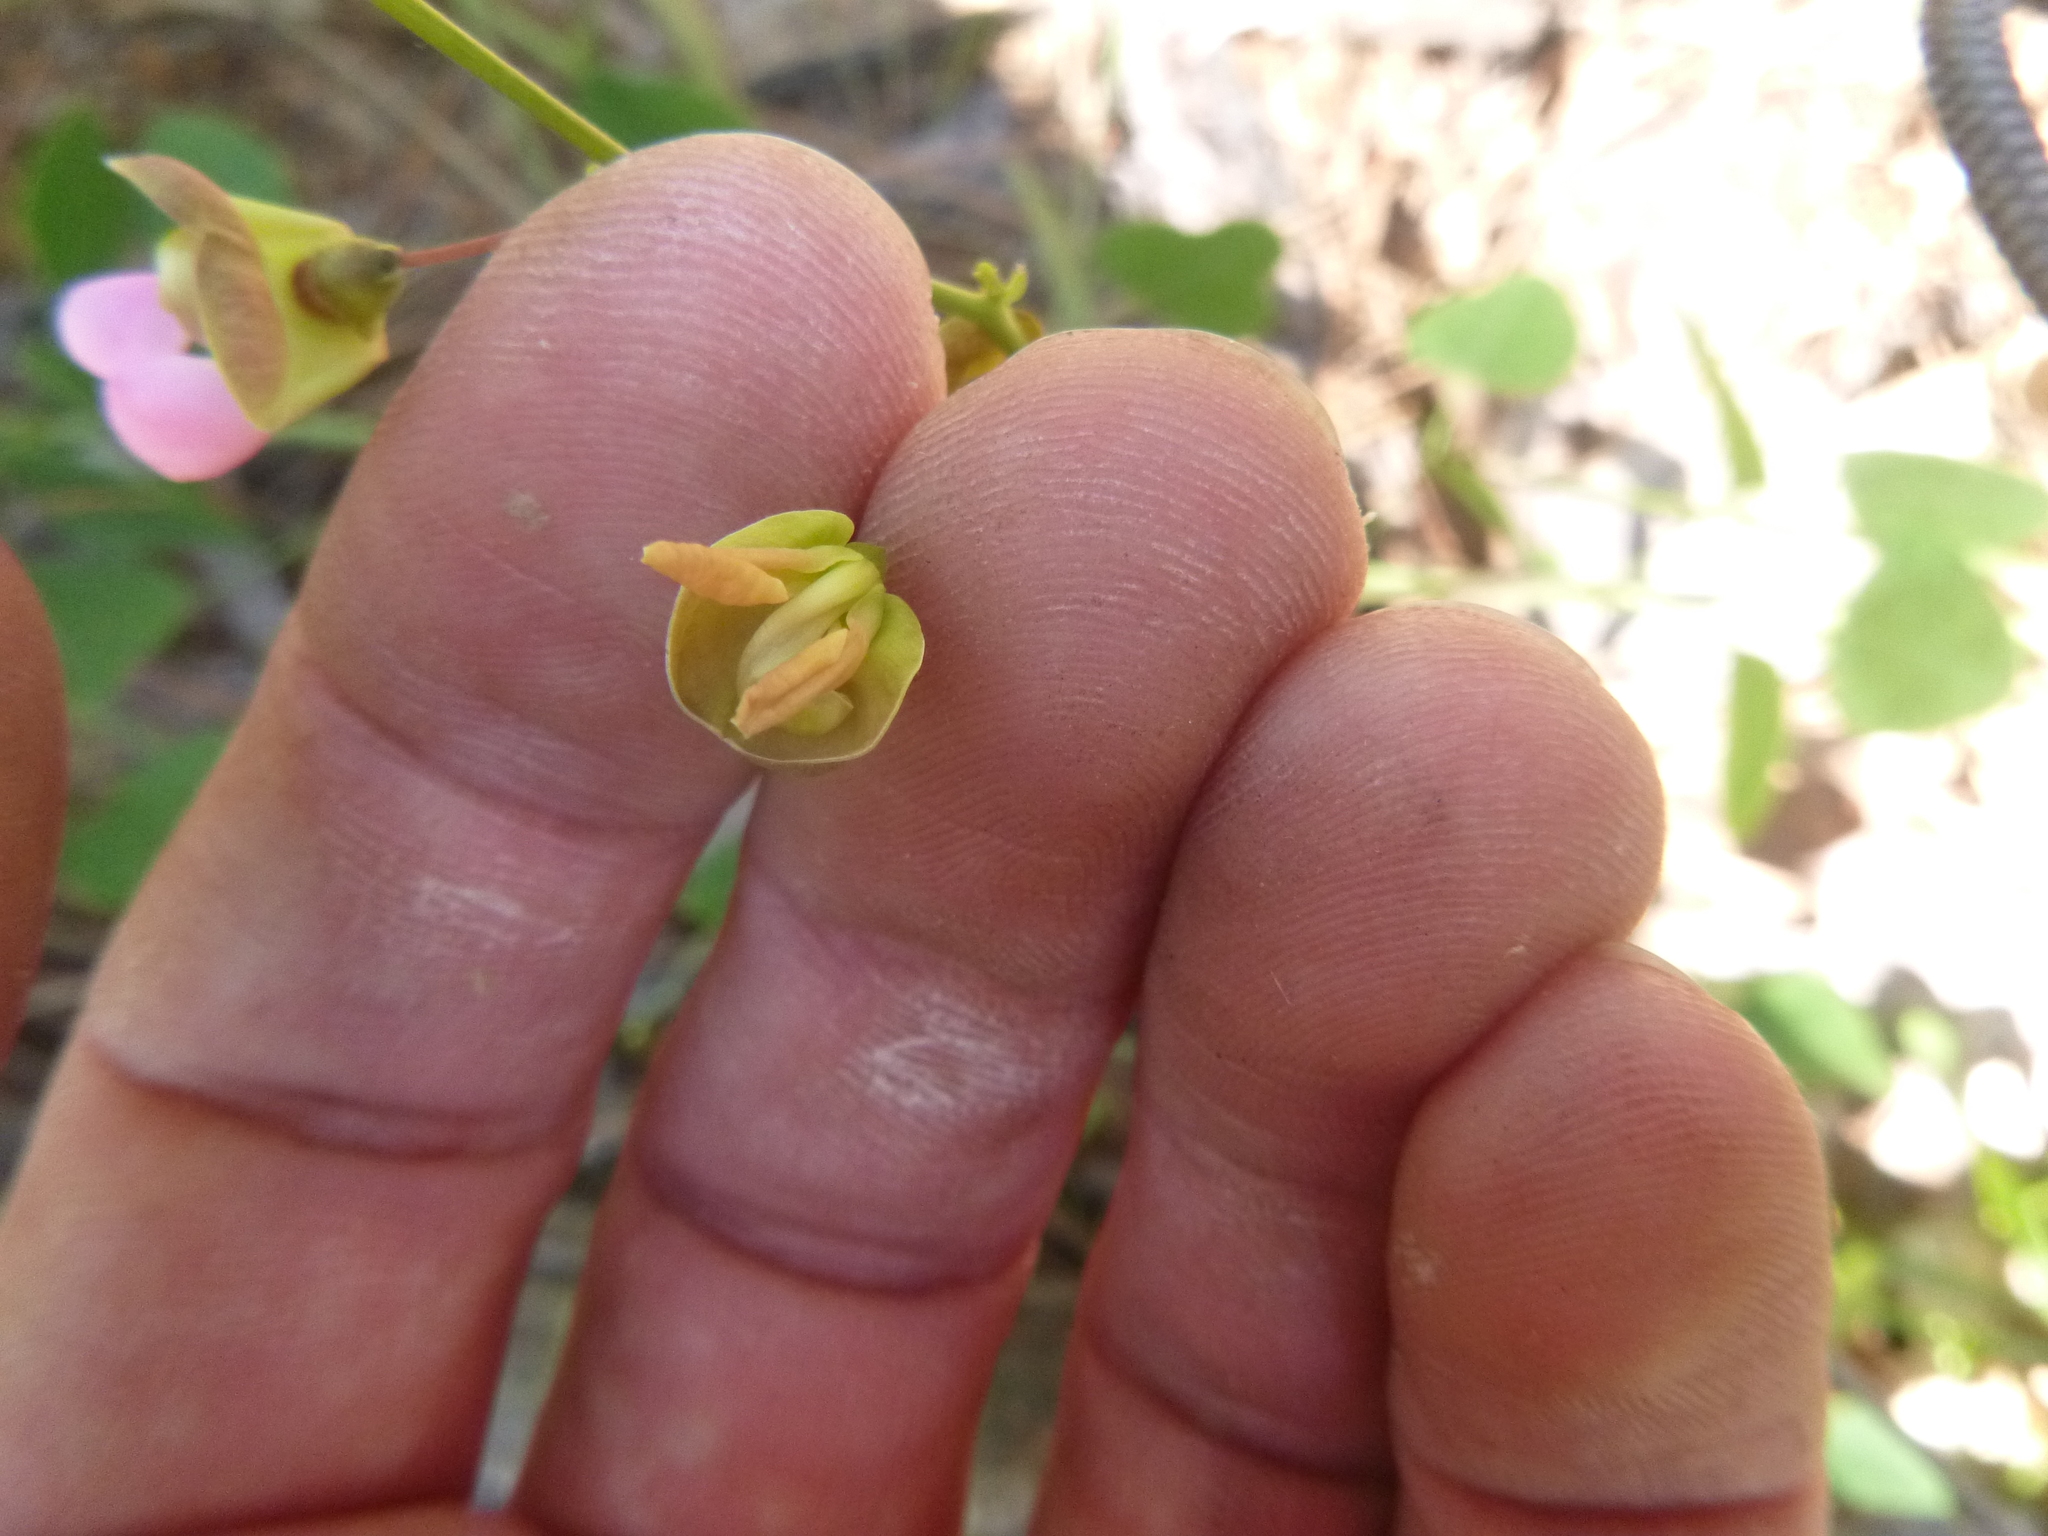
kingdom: Plantae
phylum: Tracheophyta
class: Magnoliopsida
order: Fabales
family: Fabaceae
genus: Phaseolus
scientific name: Phaseolus sinuatus
